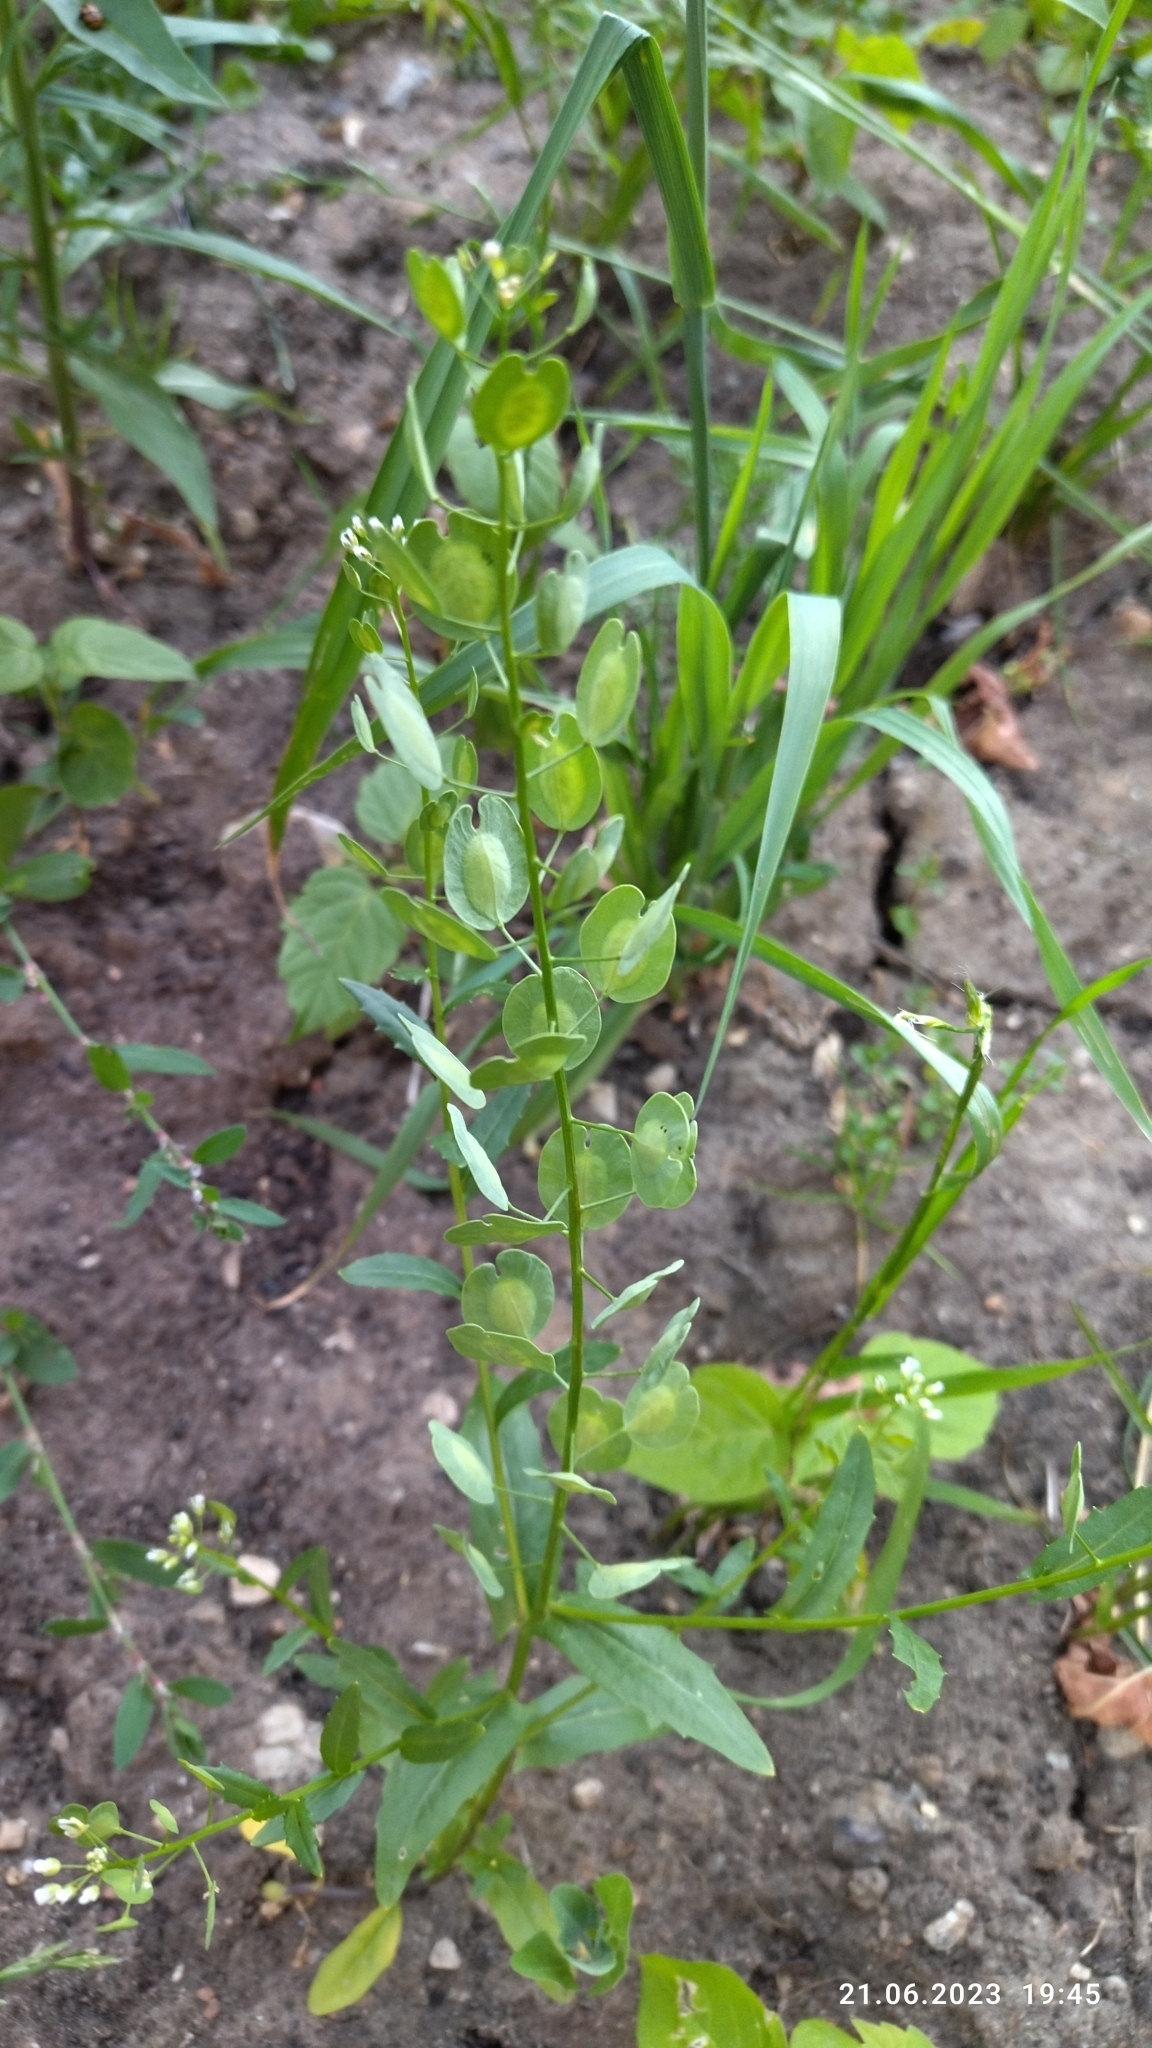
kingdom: Plantae
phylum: Tracheophyta
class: Magnoliopsida
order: Brassicales
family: Brassicaceae
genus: Thlaspi
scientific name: Thlaspi arvense
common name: Field pennycress
